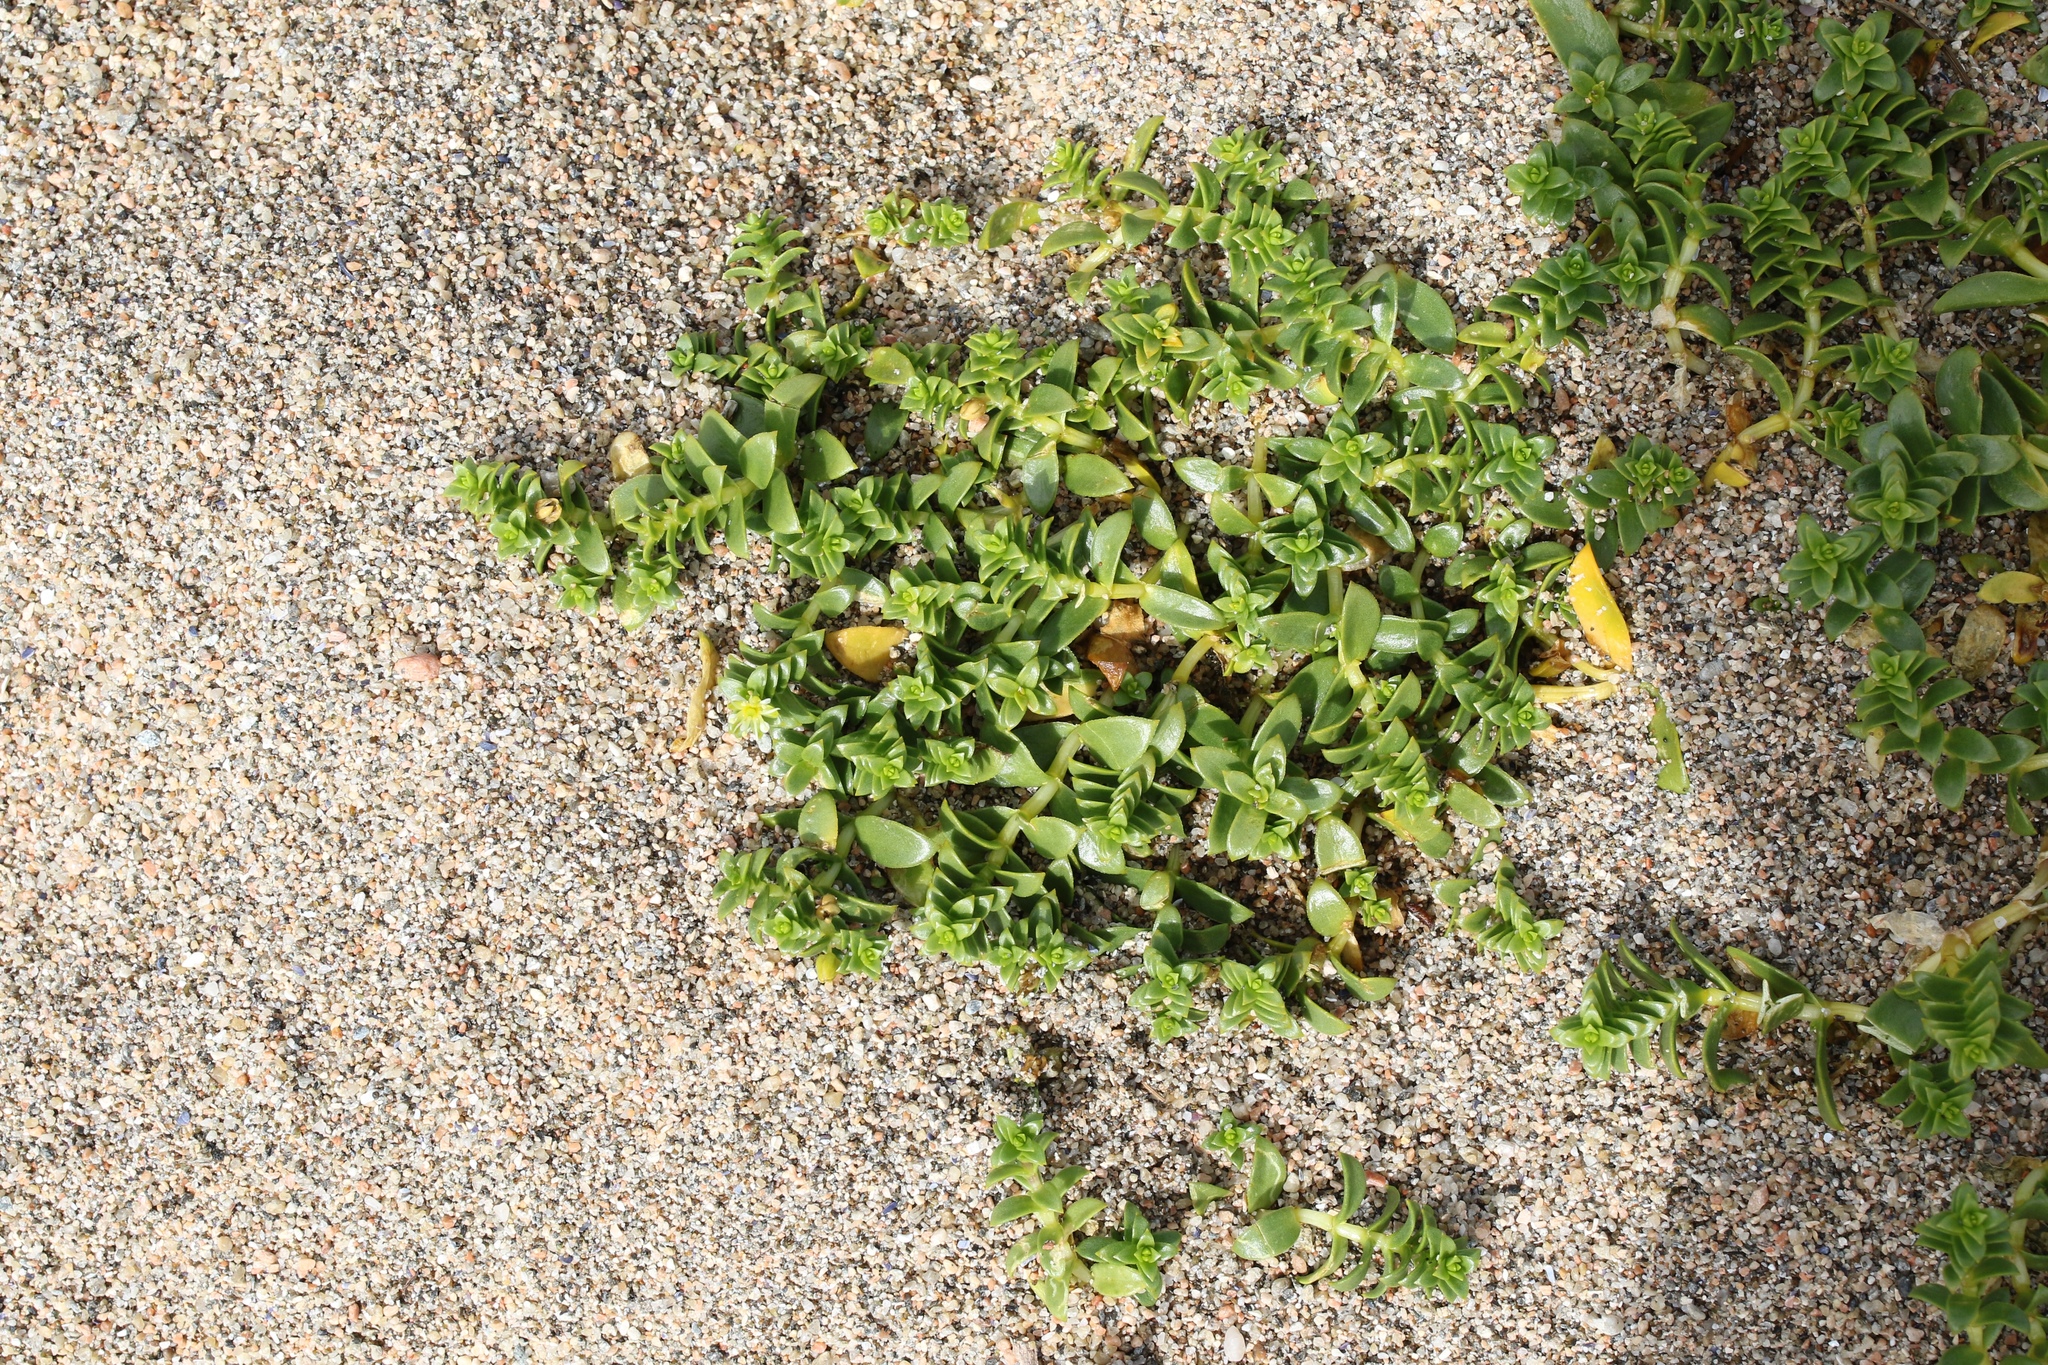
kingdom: Plantae
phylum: Tracheophyta
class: Magnoliopsida
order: Caryophyllales
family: Caryophyllaceae
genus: Honckenya
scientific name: Honckenya peploides
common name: Sea sandwort
